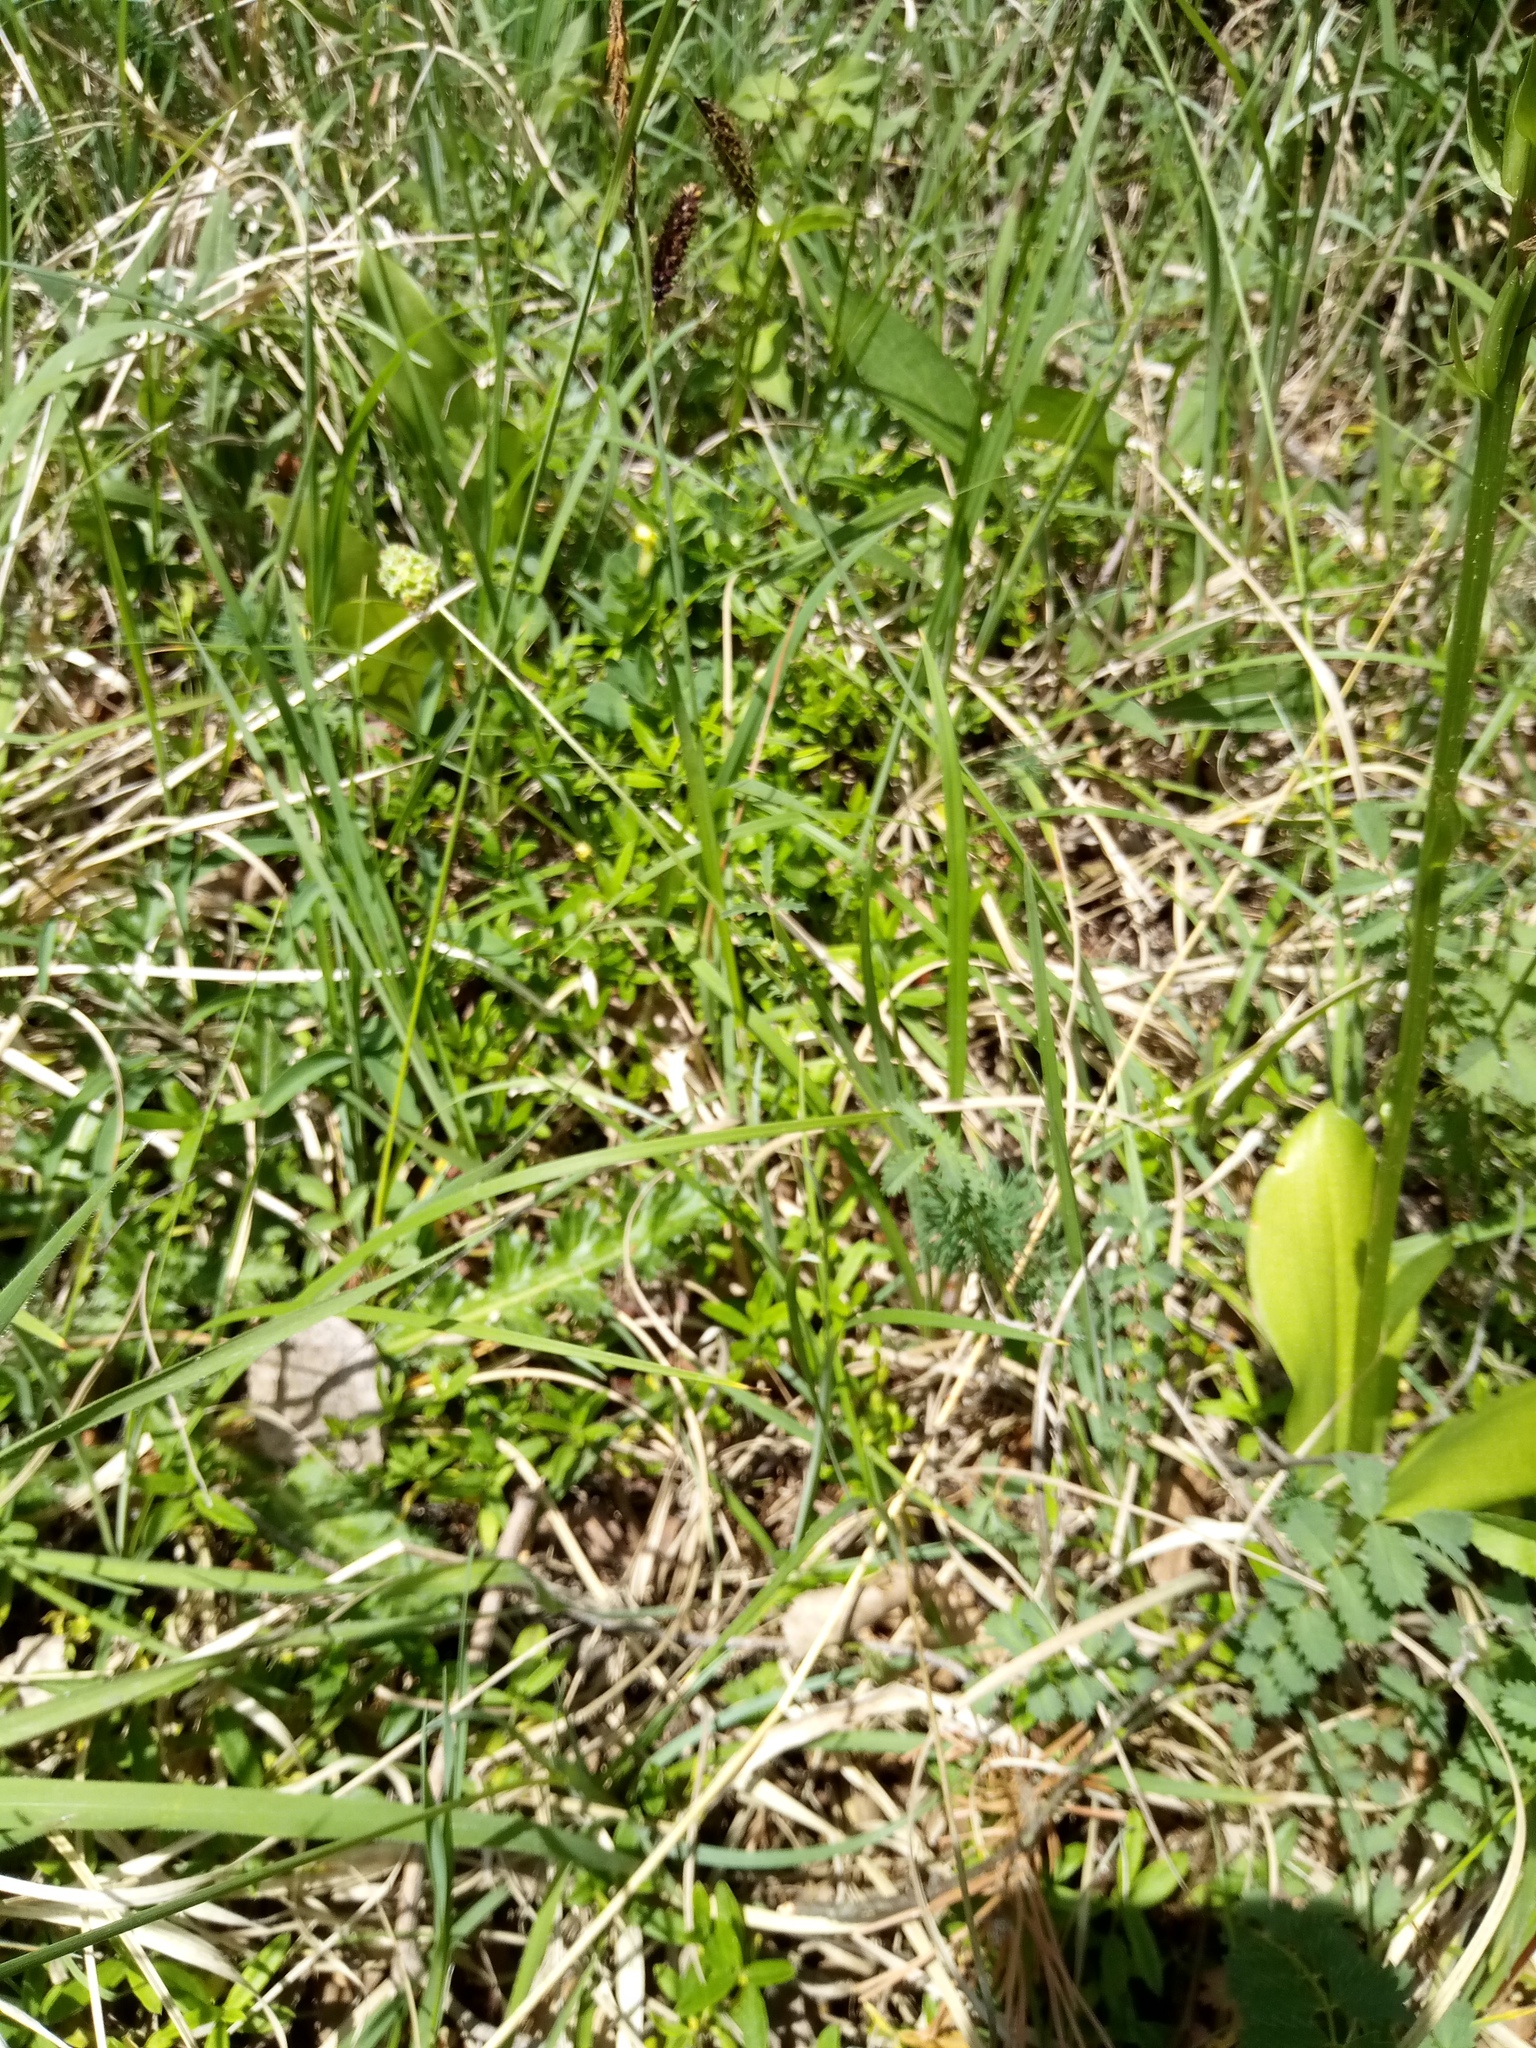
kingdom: Plantae
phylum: Tracheophyta
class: Magnoliopsida
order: Rosales
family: Rosaceae
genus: Poterium
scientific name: Poterium sanguisorba
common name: Salad burnet
